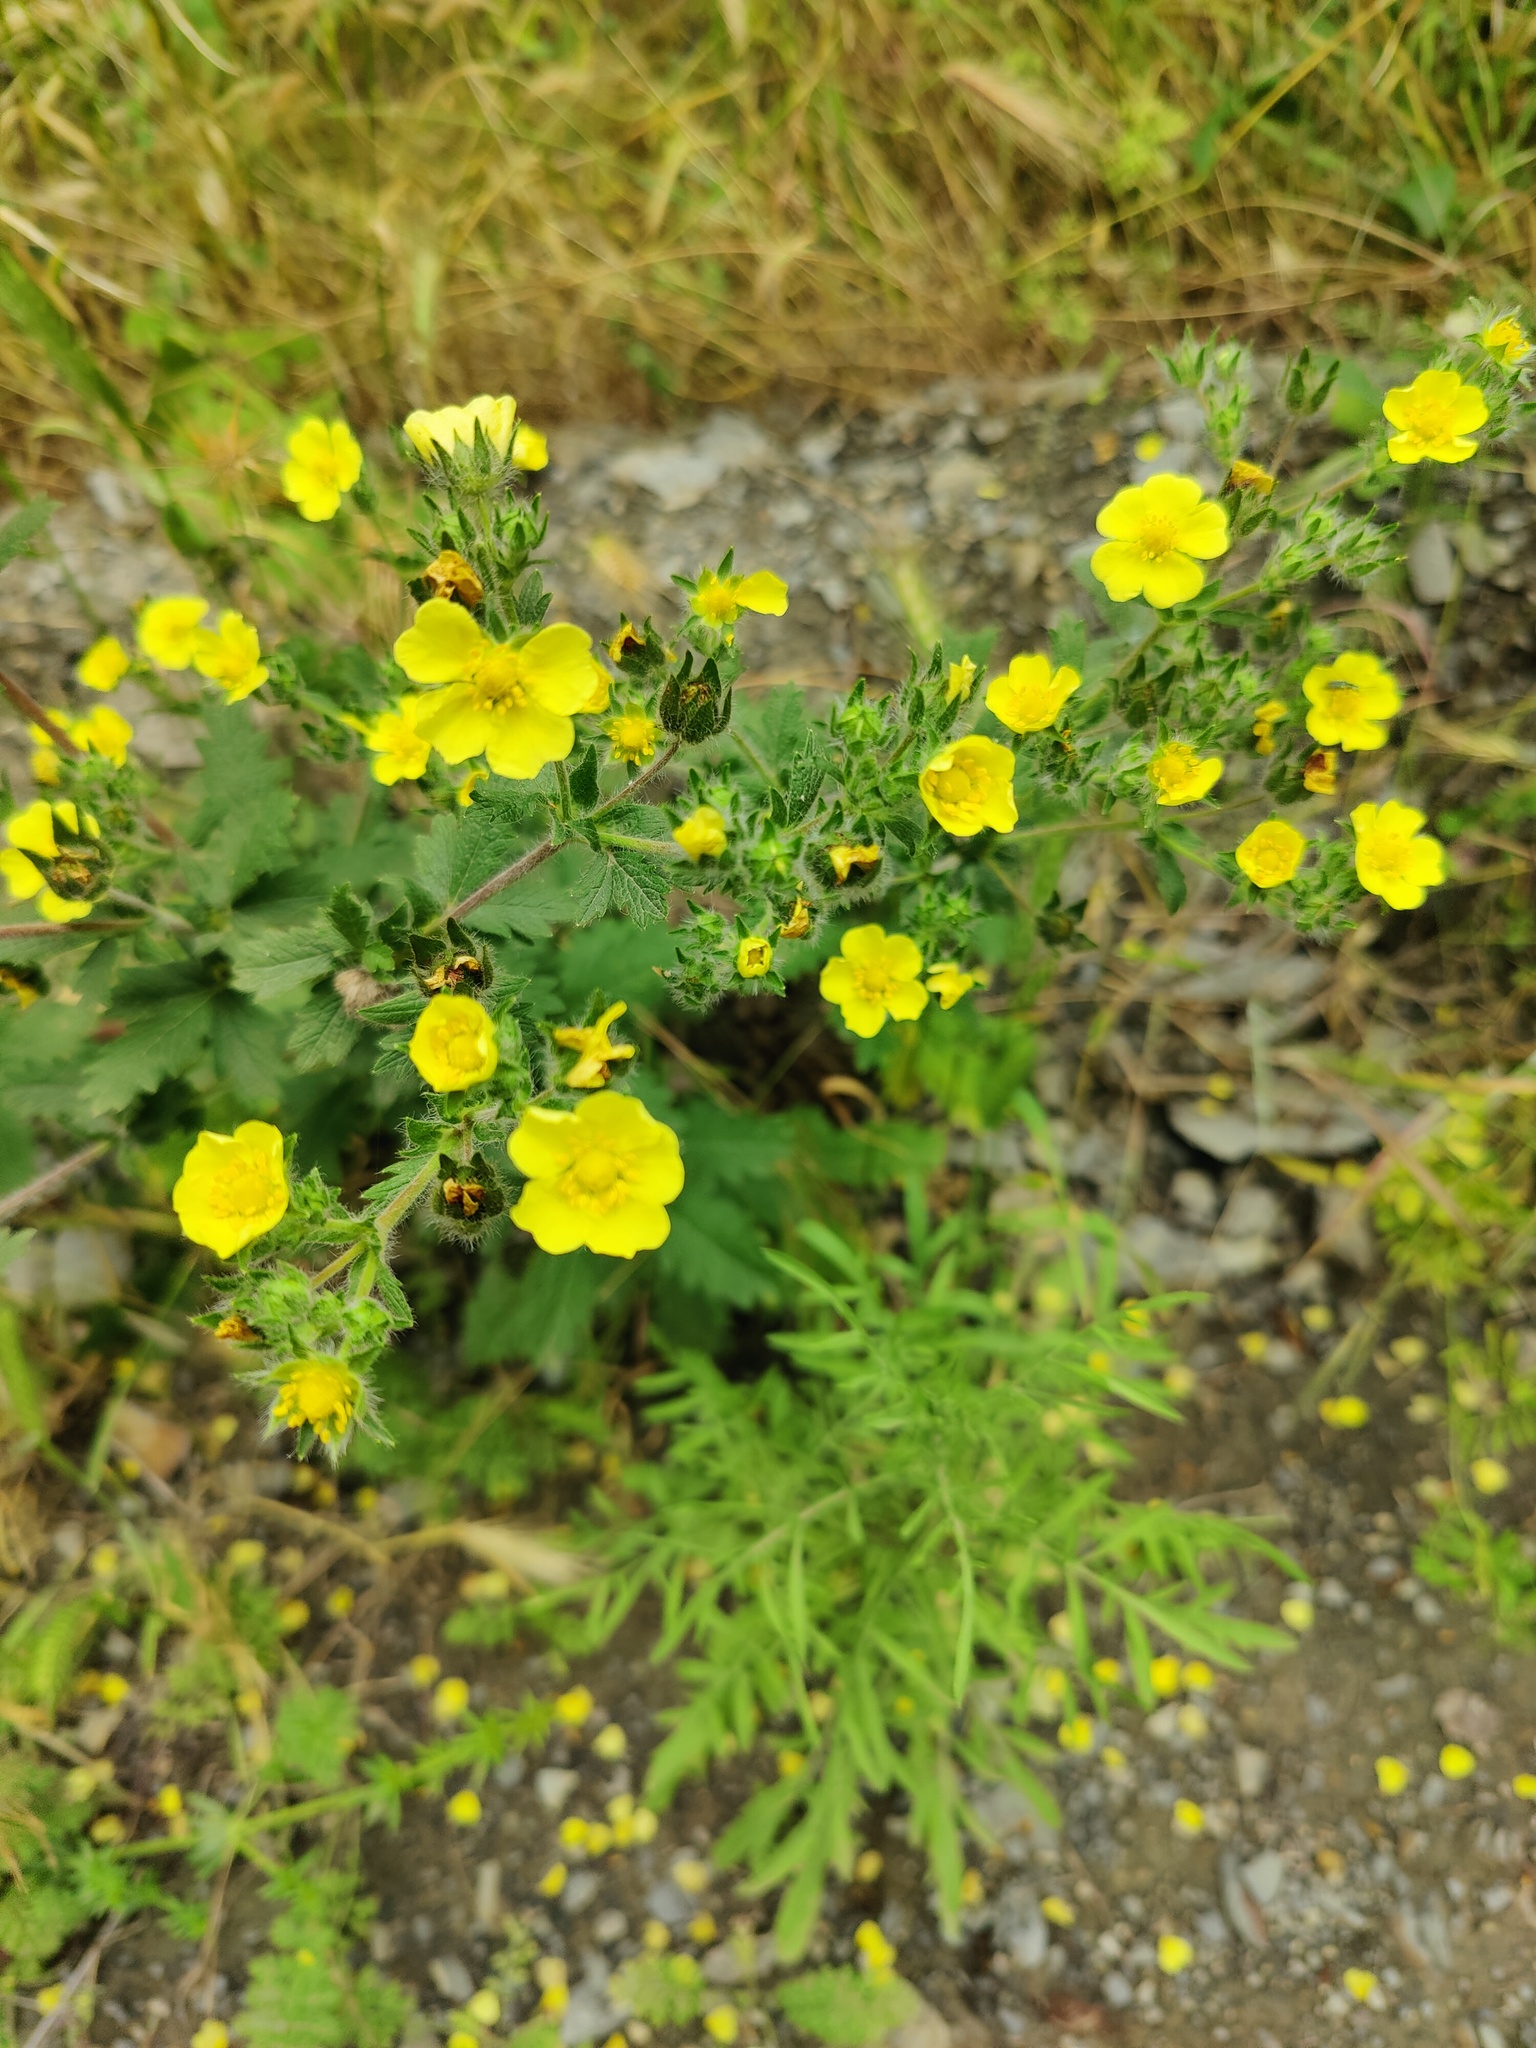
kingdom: Plantae
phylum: Tracheophyta
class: Magnoliopsida
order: Rosales
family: Rosaceae
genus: Potentilla
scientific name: Potentilla recta
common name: Sulphur cinquefoil
